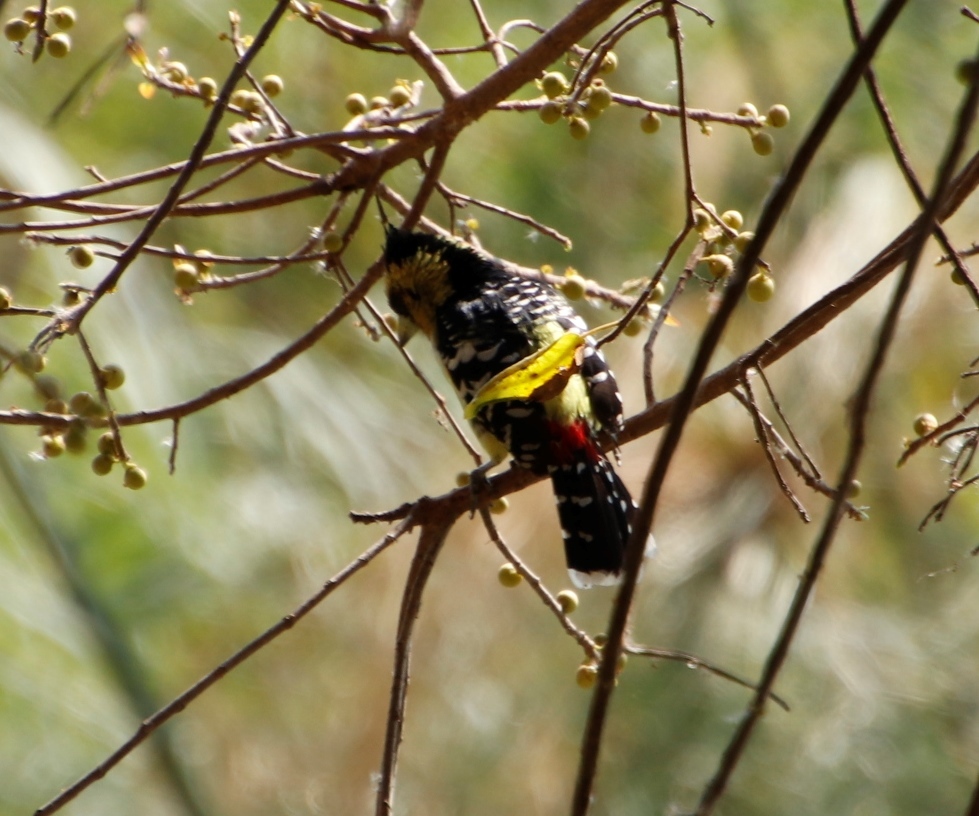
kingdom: Animalia
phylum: Chordata
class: Aves
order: Piciformes
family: Lybiidae
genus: Trachyphonus
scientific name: Trachyphonus vaillantii
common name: Crested barbet
